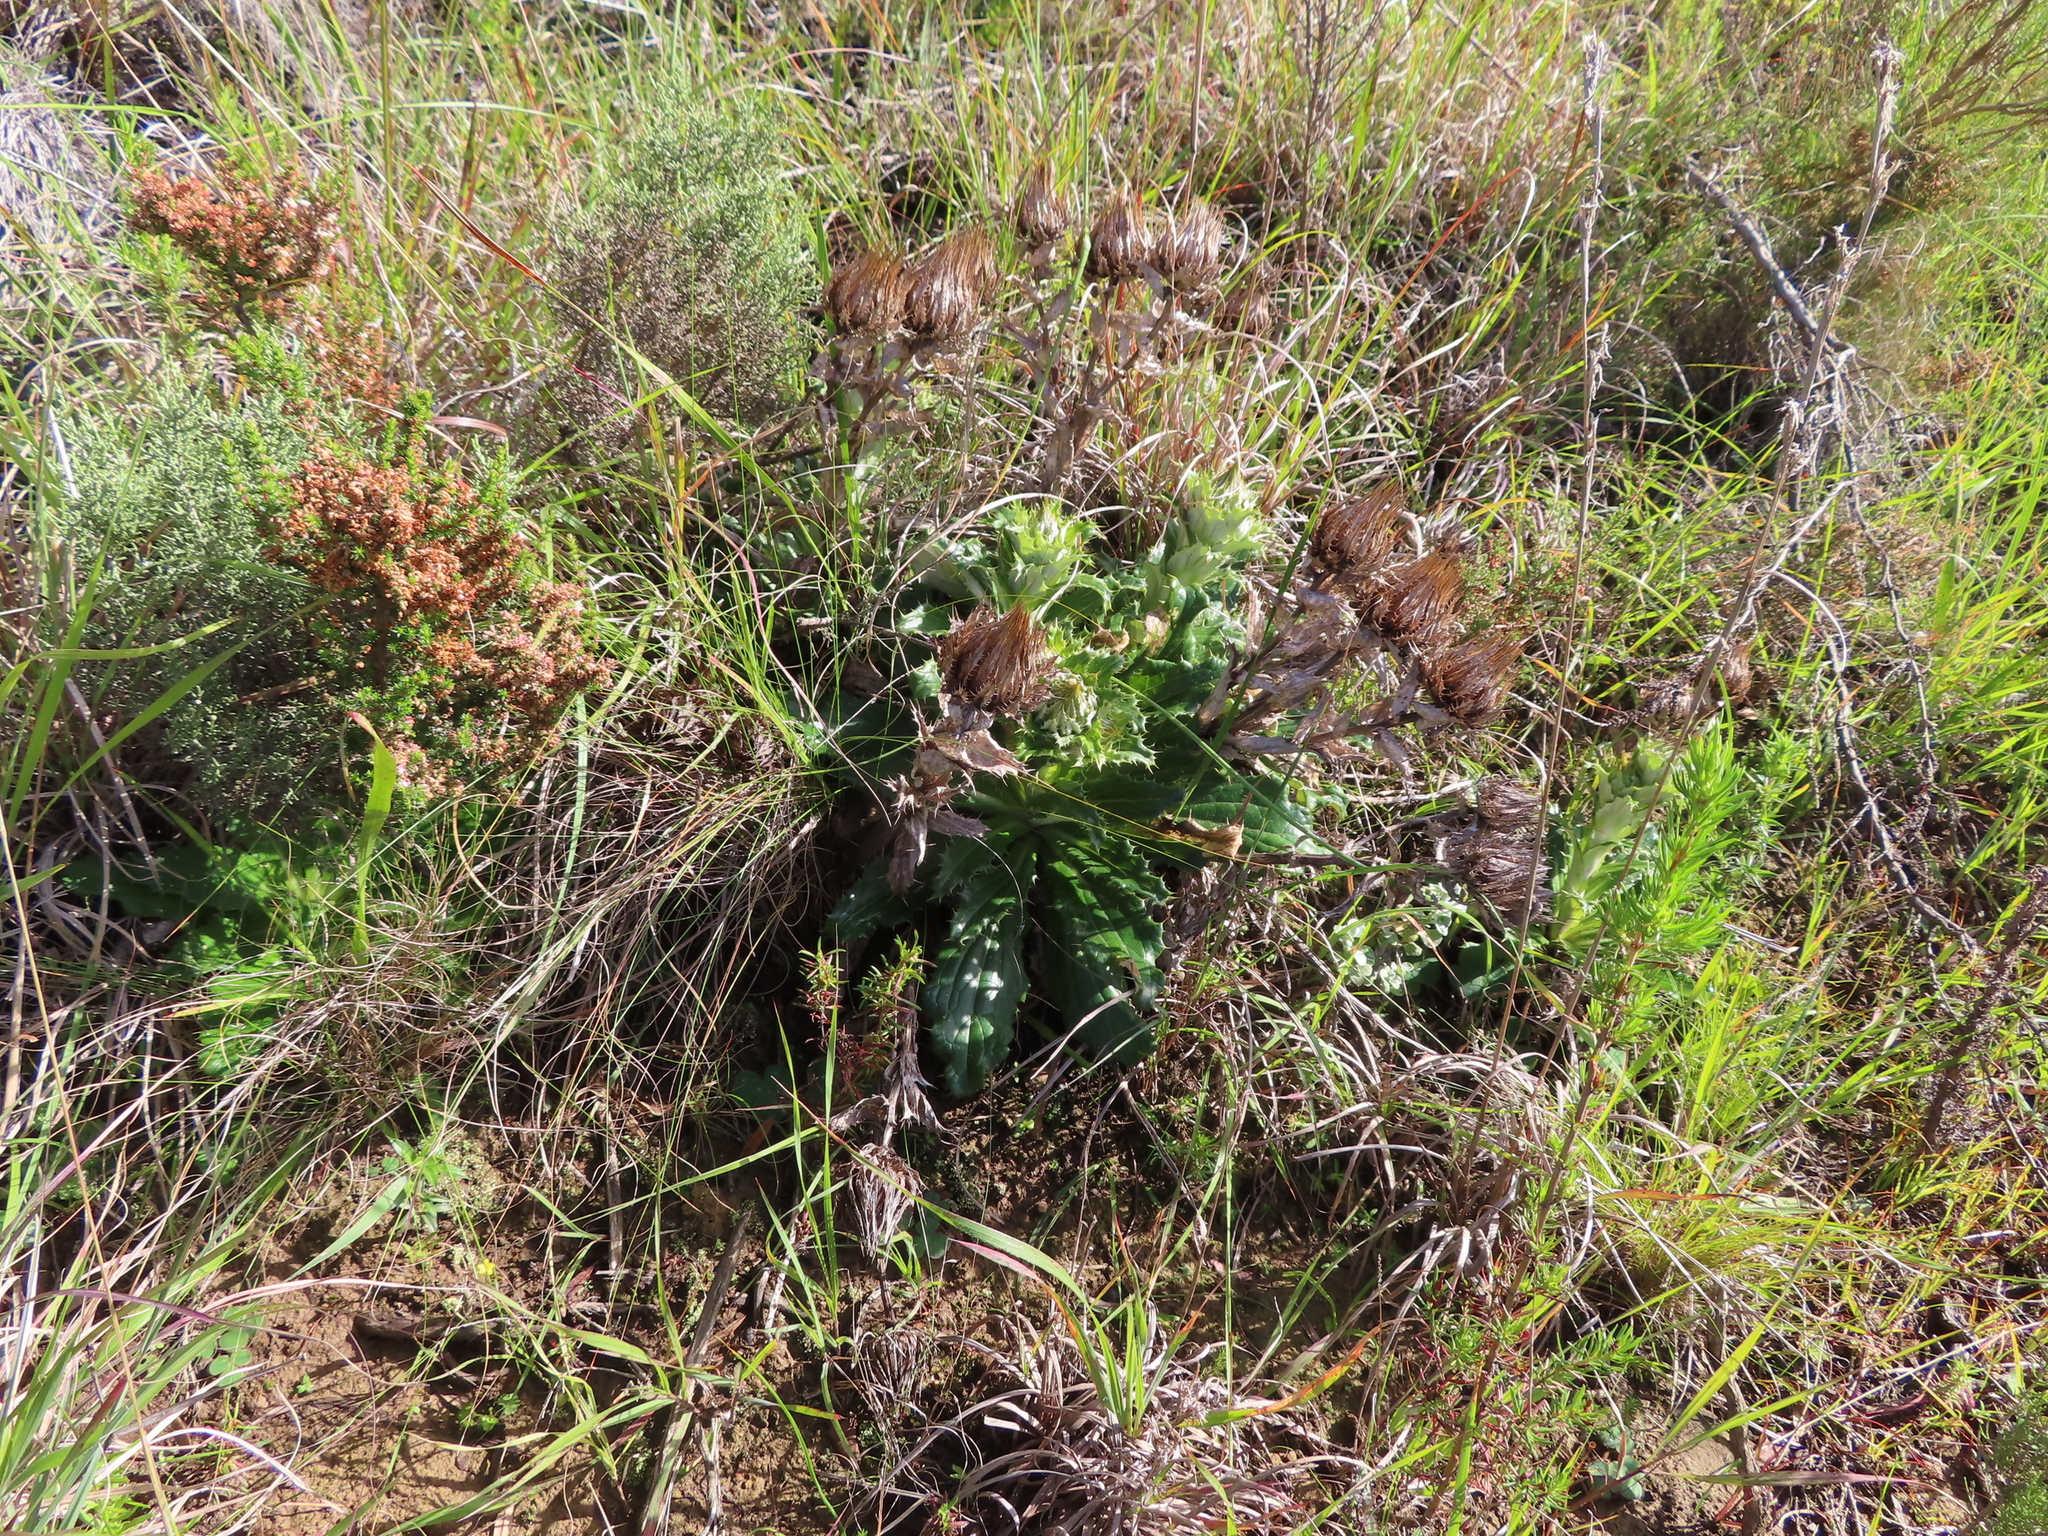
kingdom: Plantae
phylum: Tracheophyta
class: Magnoliopsida
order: Asterales
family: Asteraceae
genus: Berkheya
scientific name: Berkheya armata
